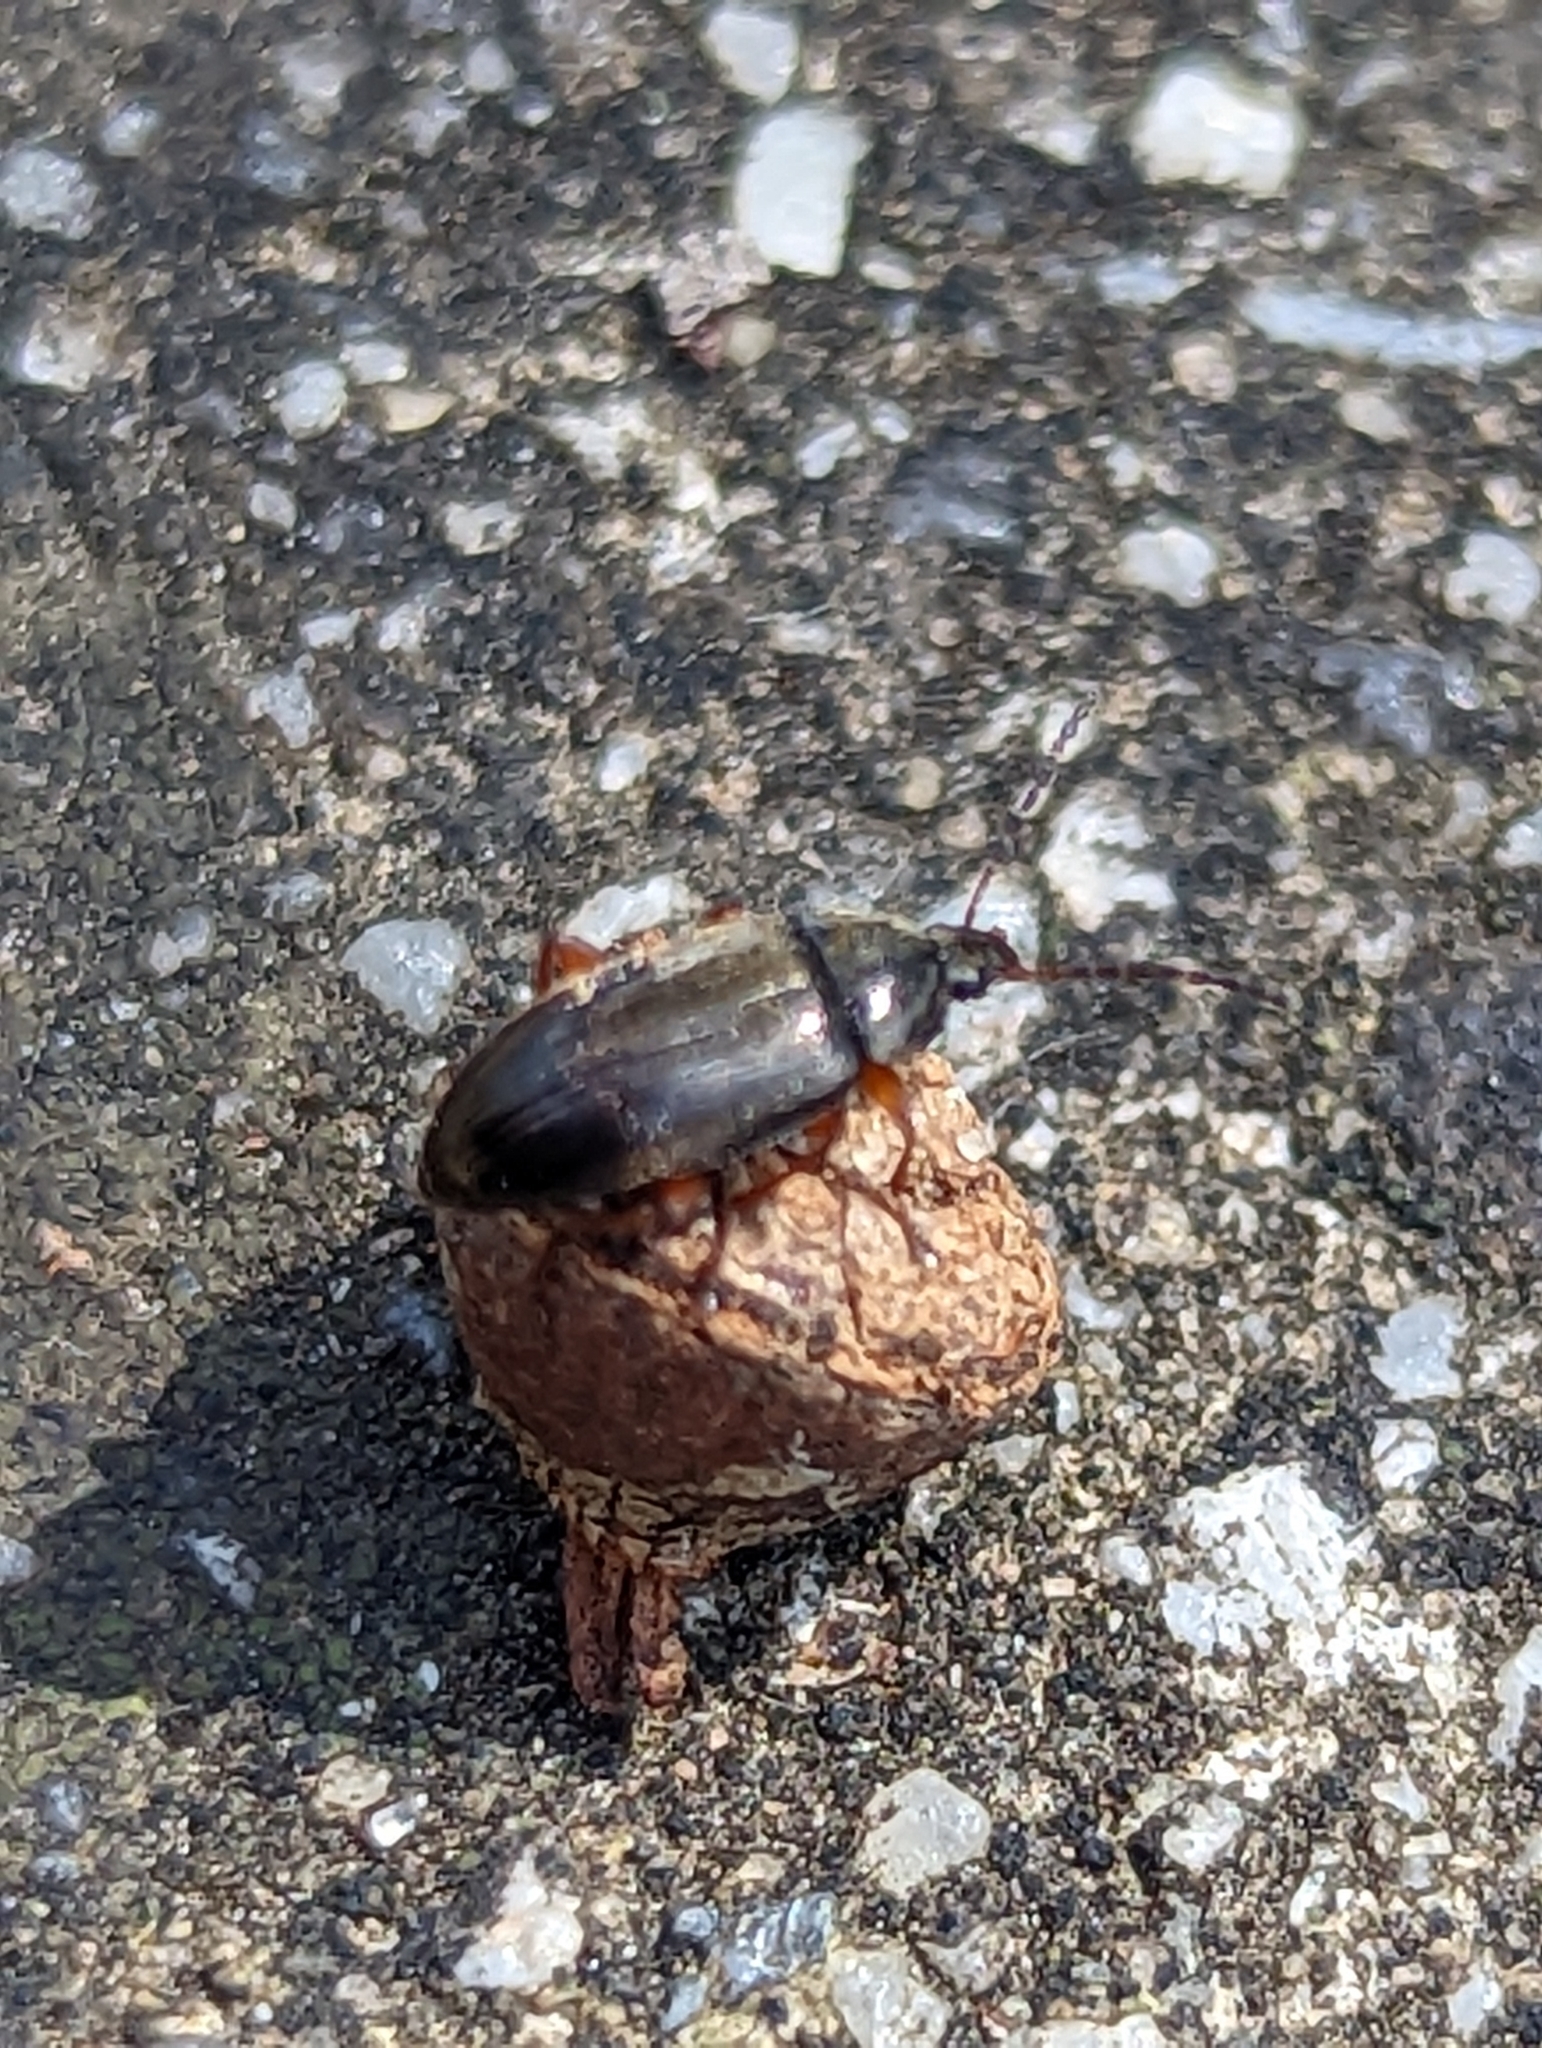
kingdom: Animalia
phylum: Arthropoda
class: Insecta
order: Coleoptera
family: Tenebrionidae
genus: Neocistela
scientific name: Neocistela
